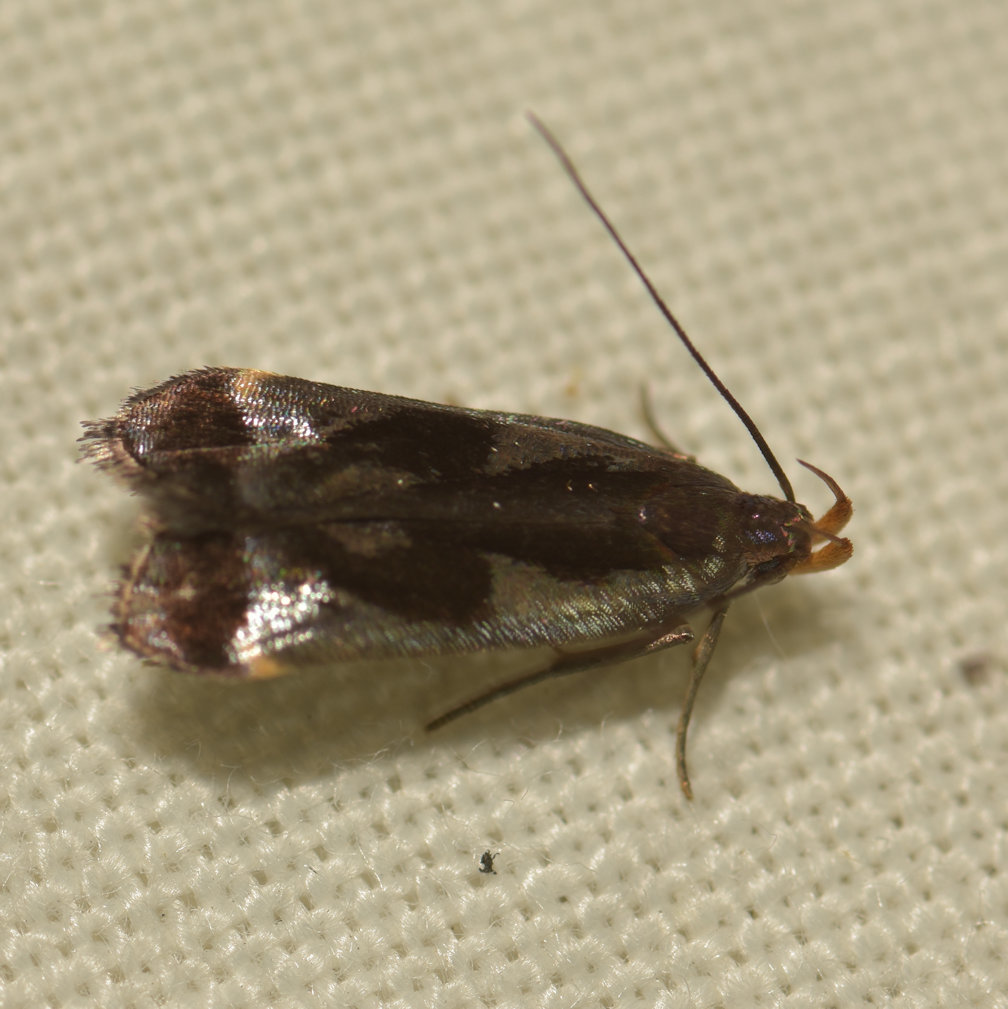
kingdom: Animalia
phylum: Arthropoda
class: Insecta
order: Lepidoptera
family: Gelechiidae
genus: Dichomeris
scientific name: Dichomeris ochripalpella
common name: Shining dichomeris moth
